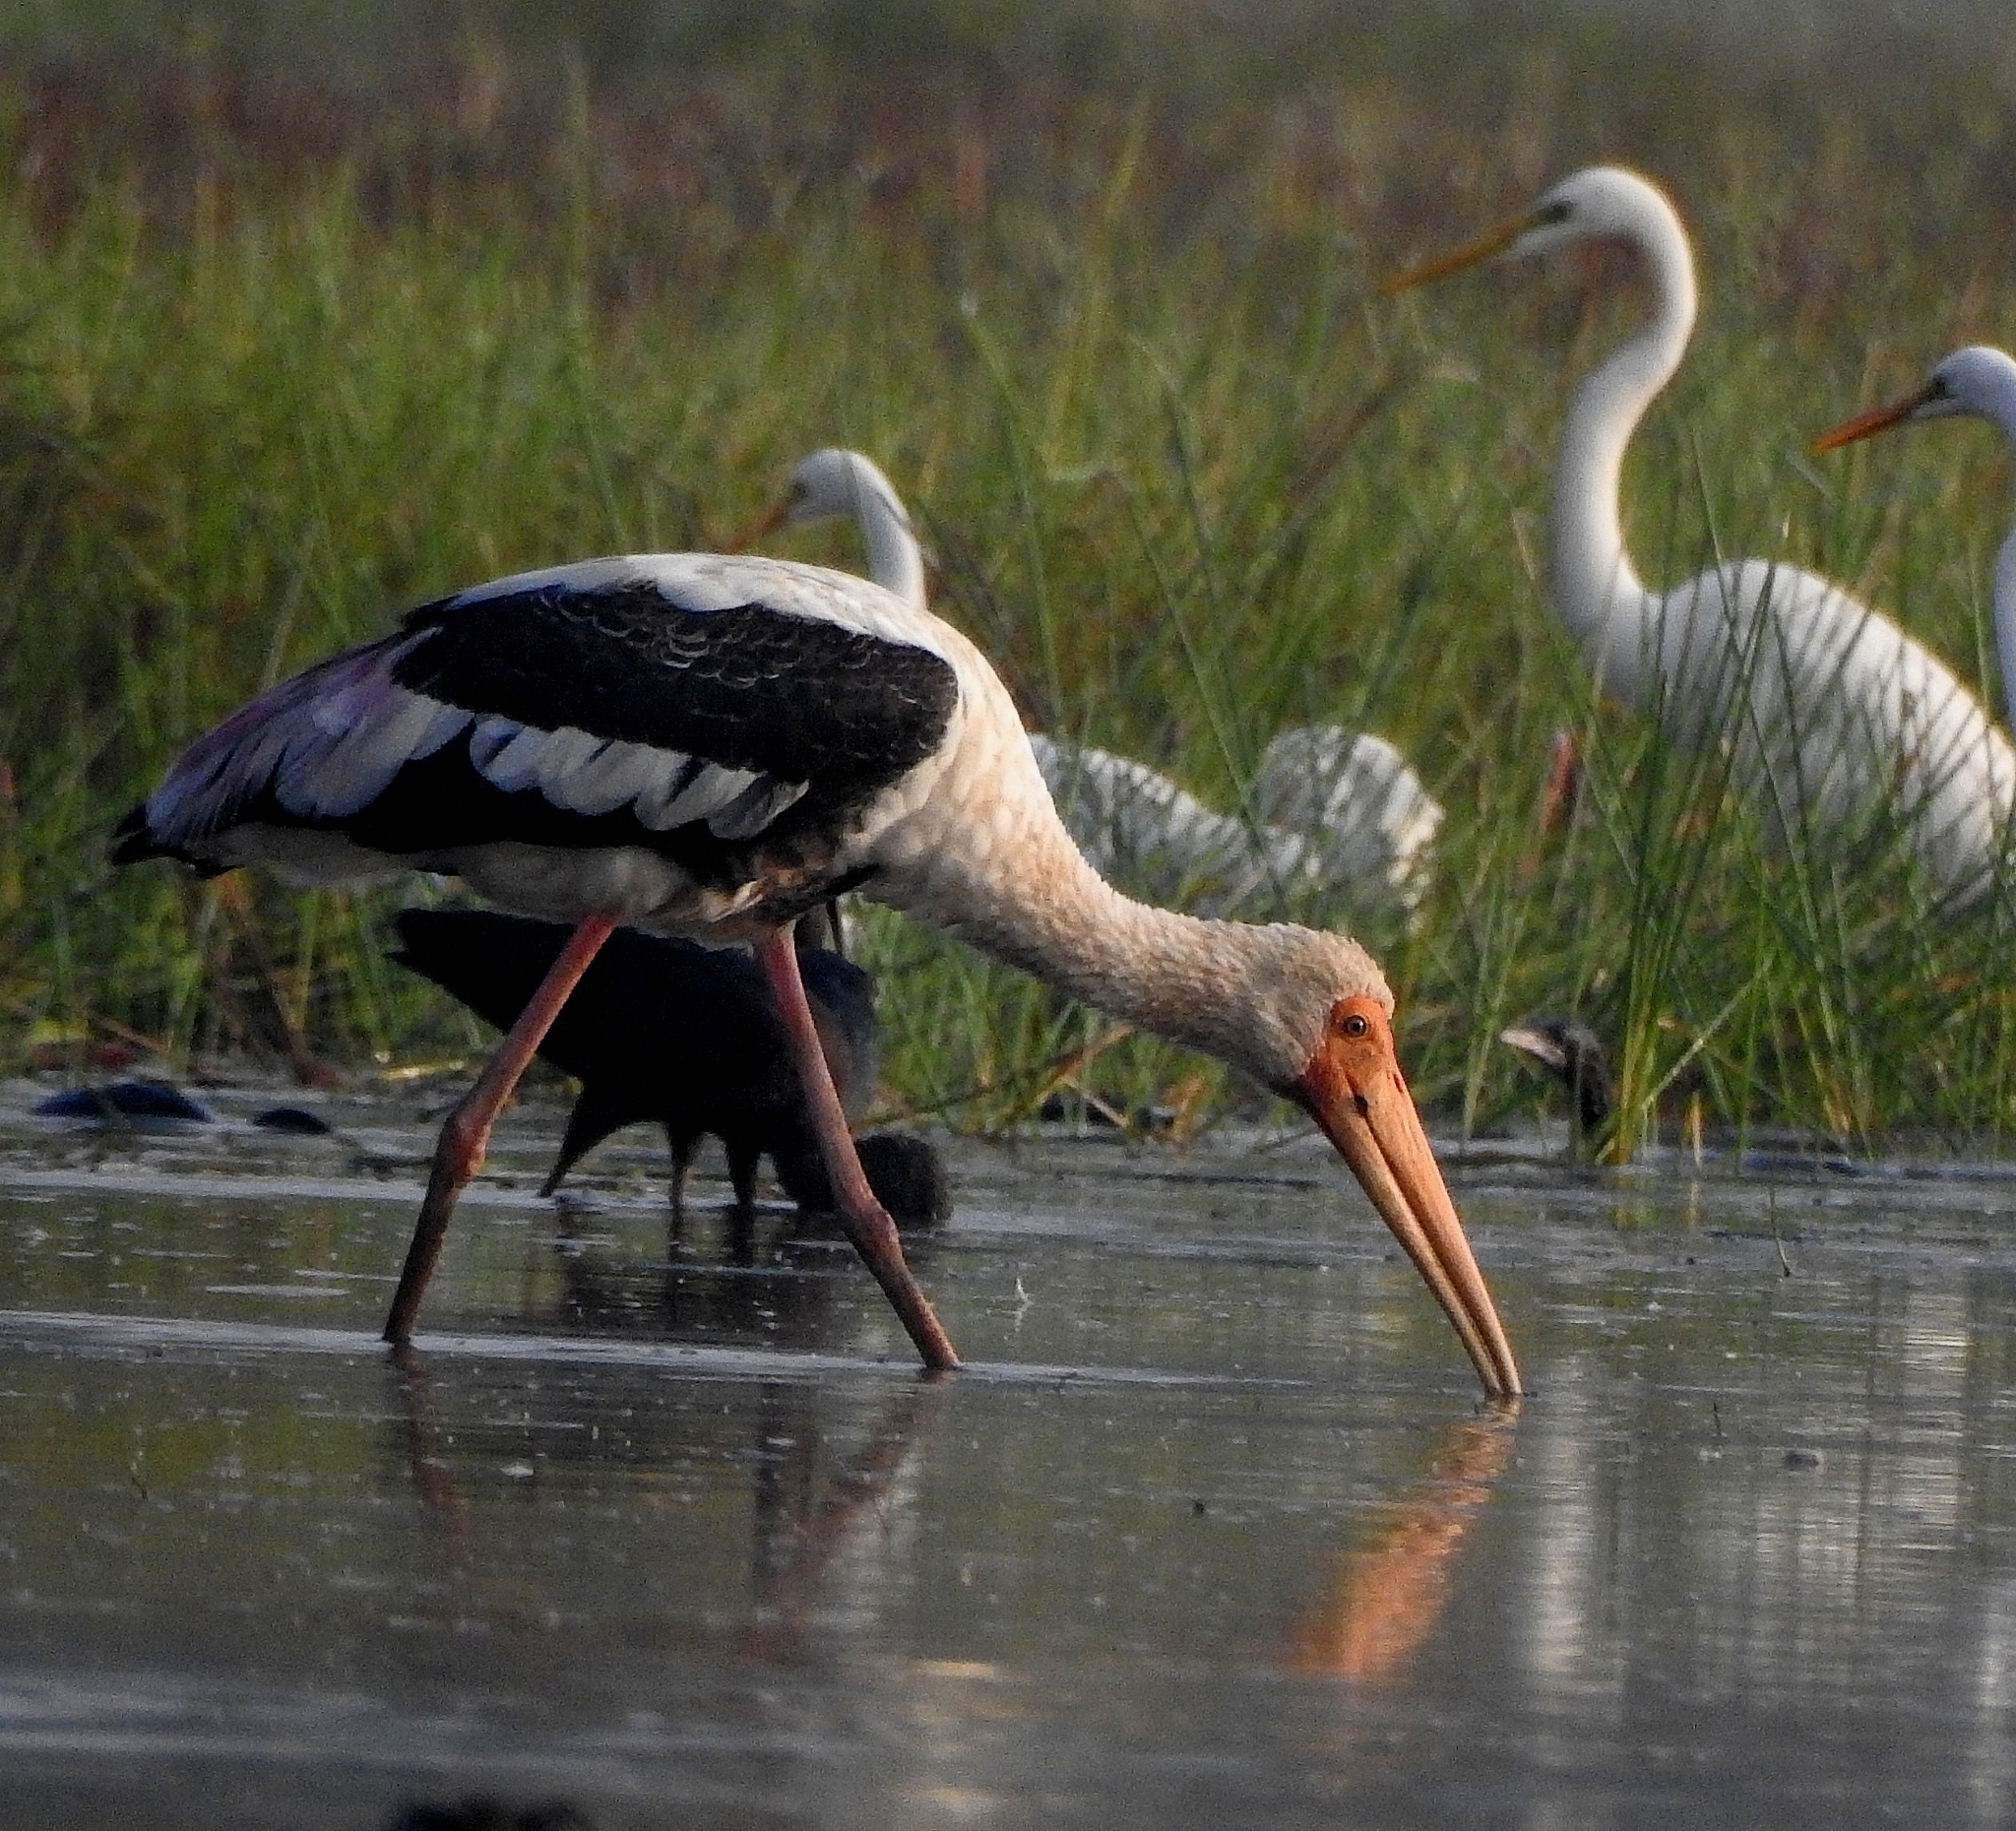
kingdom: Animalia
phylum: Chordata
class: Aves
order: Ciconiiformes
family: Ciconiidae
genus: Mycteria
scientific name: Mycteria leucocephala
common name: Painted stork
